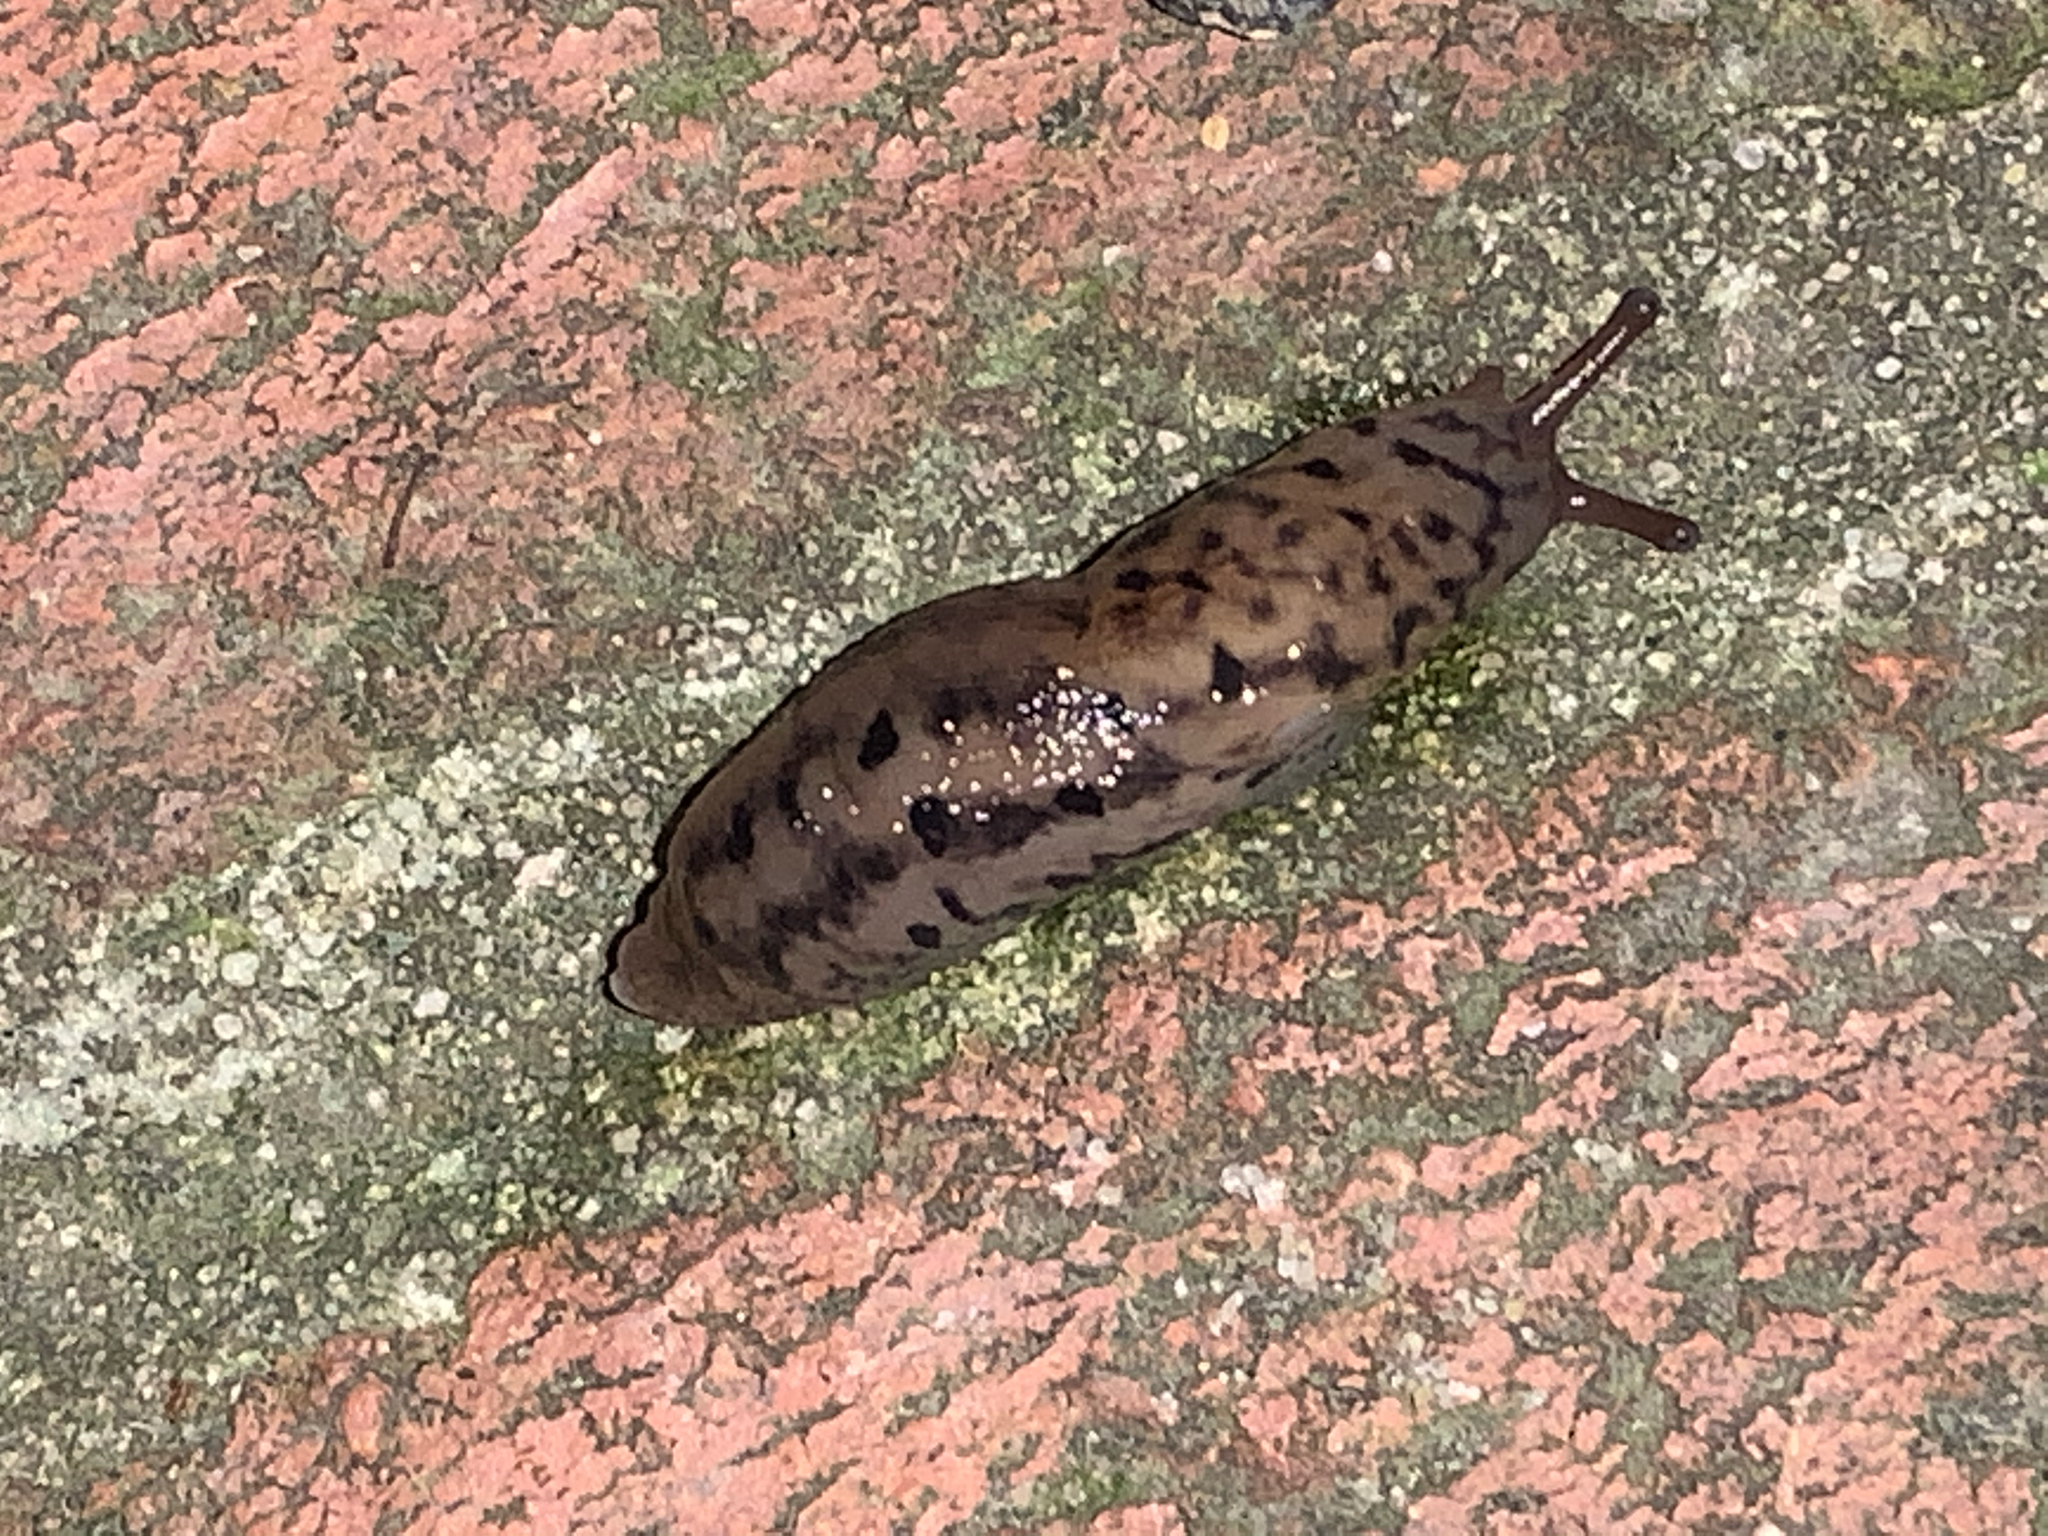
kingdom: Animalia
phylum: Mollusca
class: Gastropoda
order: Stylommatophora
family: Limacidae
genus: Limax
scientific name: Limax maximus
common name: Great grey slug
